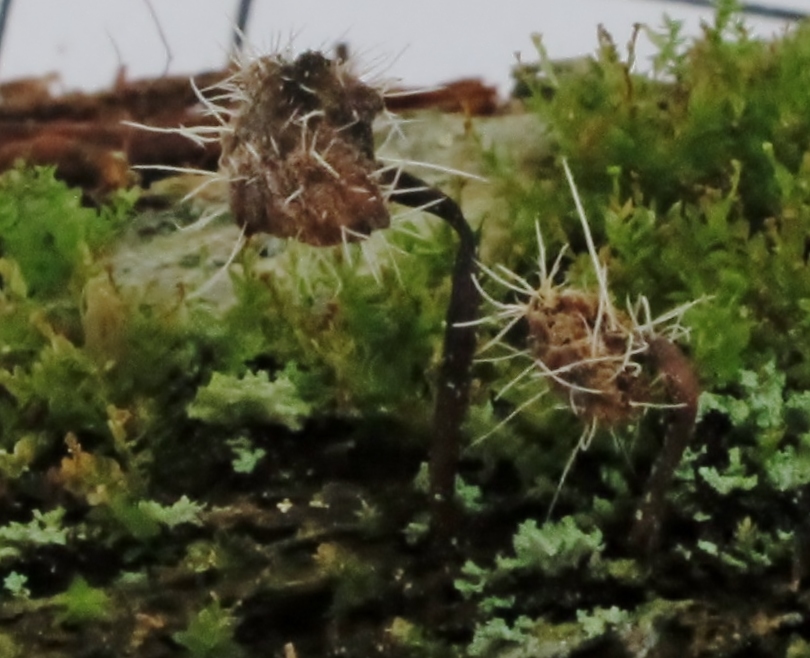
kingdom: Fungi
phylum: Ascomycota
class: Sordariomycetes
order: Hypocreales
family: Tilachlidiaceae
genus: Tilachlidium
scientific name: Tilachlidium brachiatum
